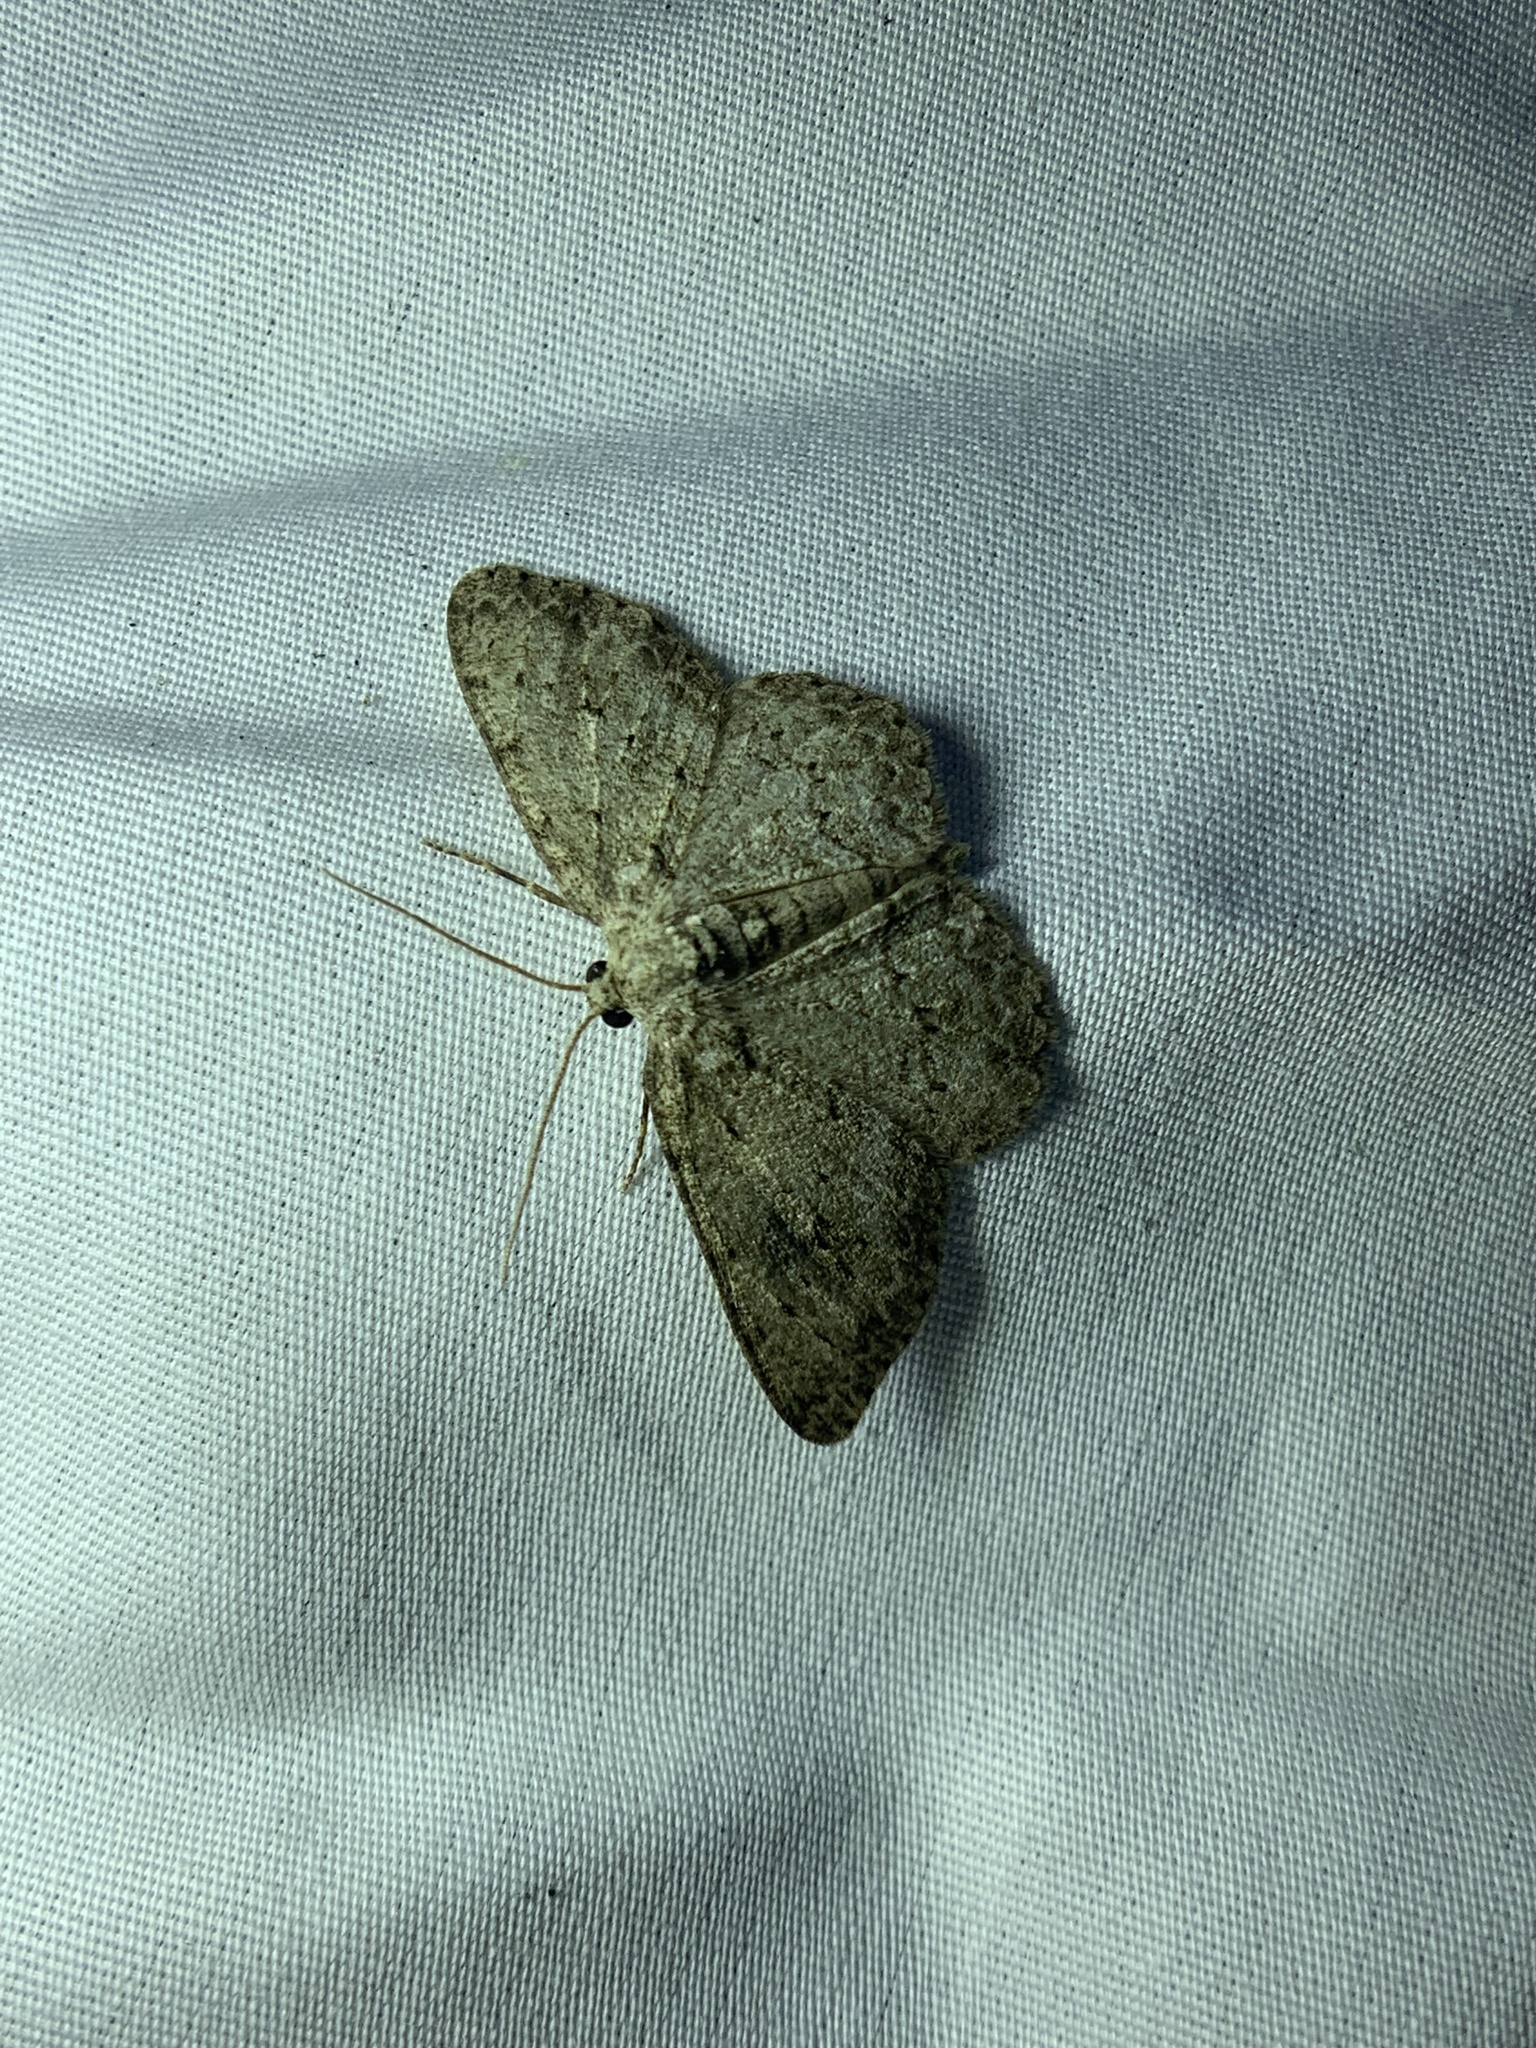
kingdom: Animalia
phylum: Arthropoda
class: Insecta
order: Lepidoptera
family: Geometridae
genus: Ectropis
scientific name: Ectropis crepuscularia
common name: Engrailed
